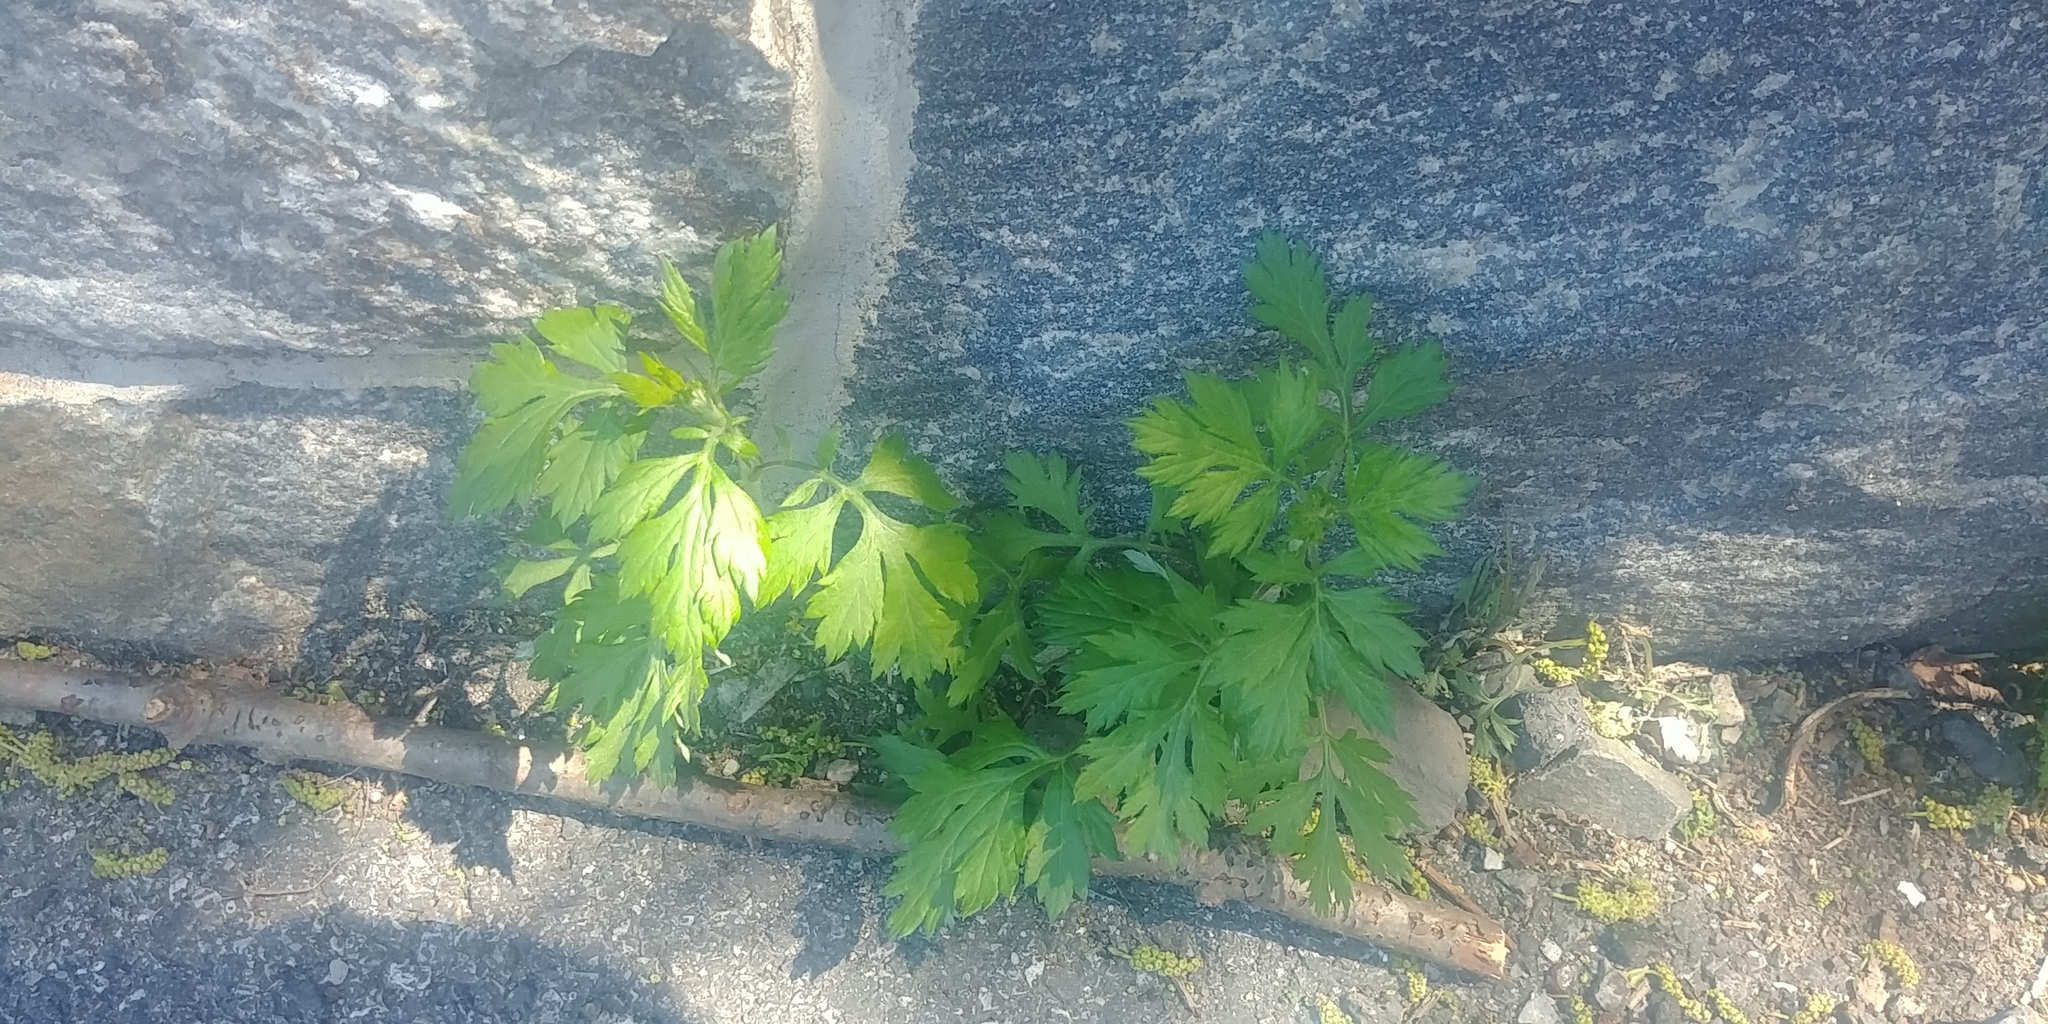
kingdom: Plantae
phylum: Tracheophyta
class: Magnoliopsida
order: Asterales
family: Asteraceae
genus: Artemisia
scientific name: Artemisia vulgaris
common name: Mugwort
